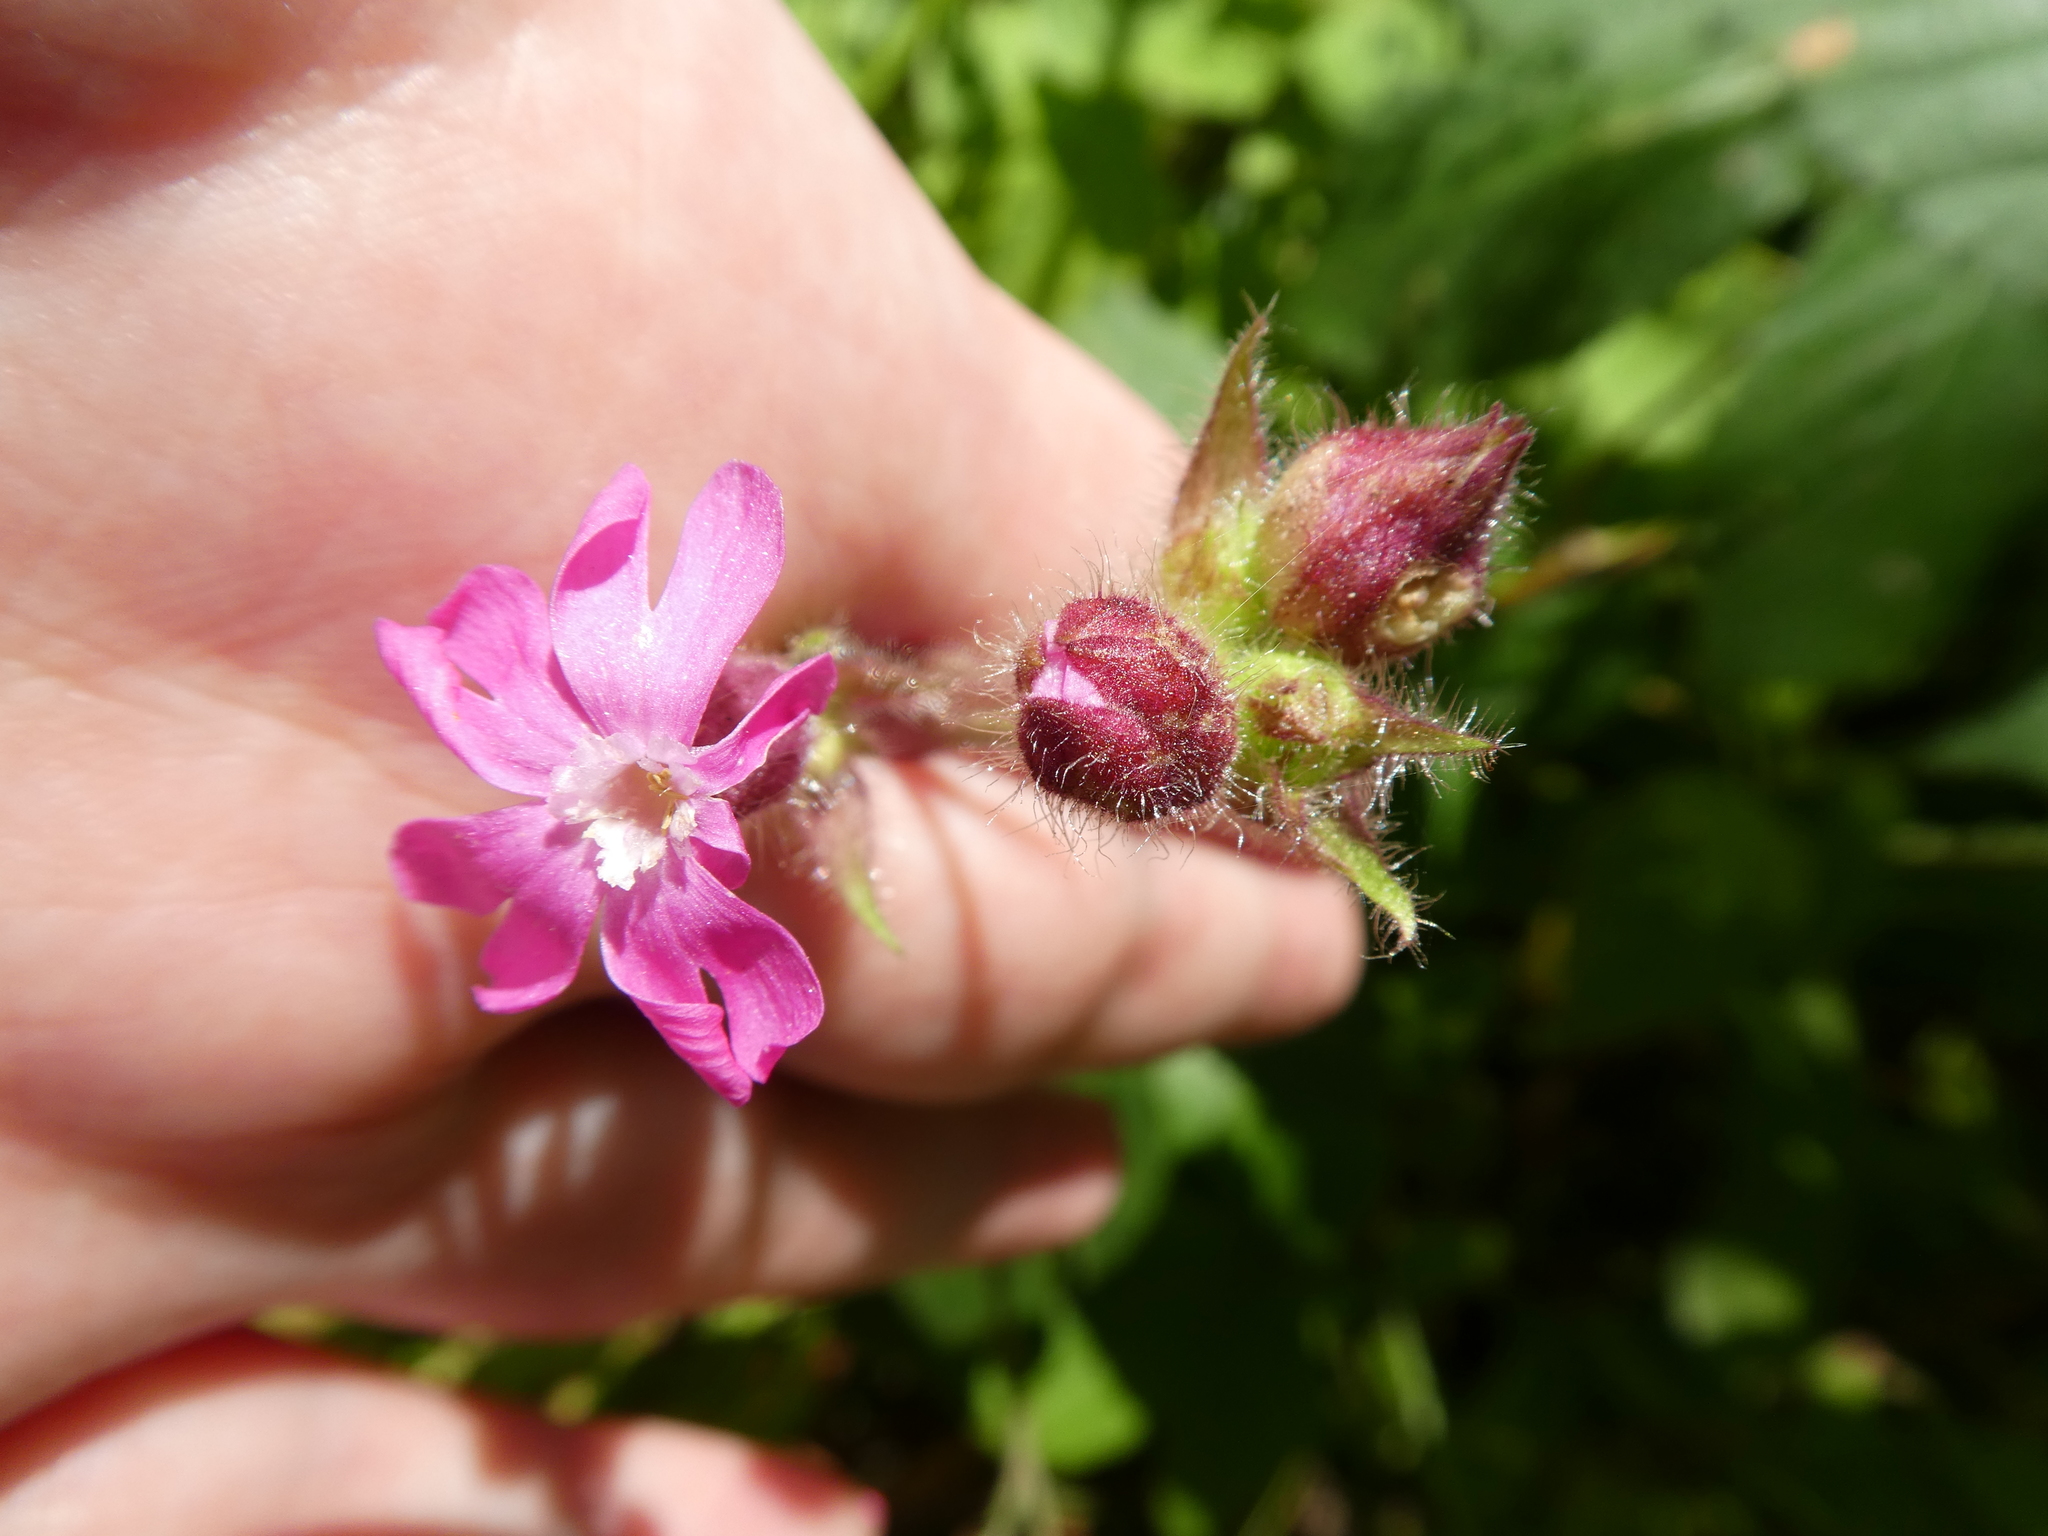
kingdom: Plantae
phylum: Tracheophyta
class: Magnoliopsida
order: Caryophyllales
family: Caryophyllaceae
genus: Silene
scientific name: Silene dioica
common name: Red campion
